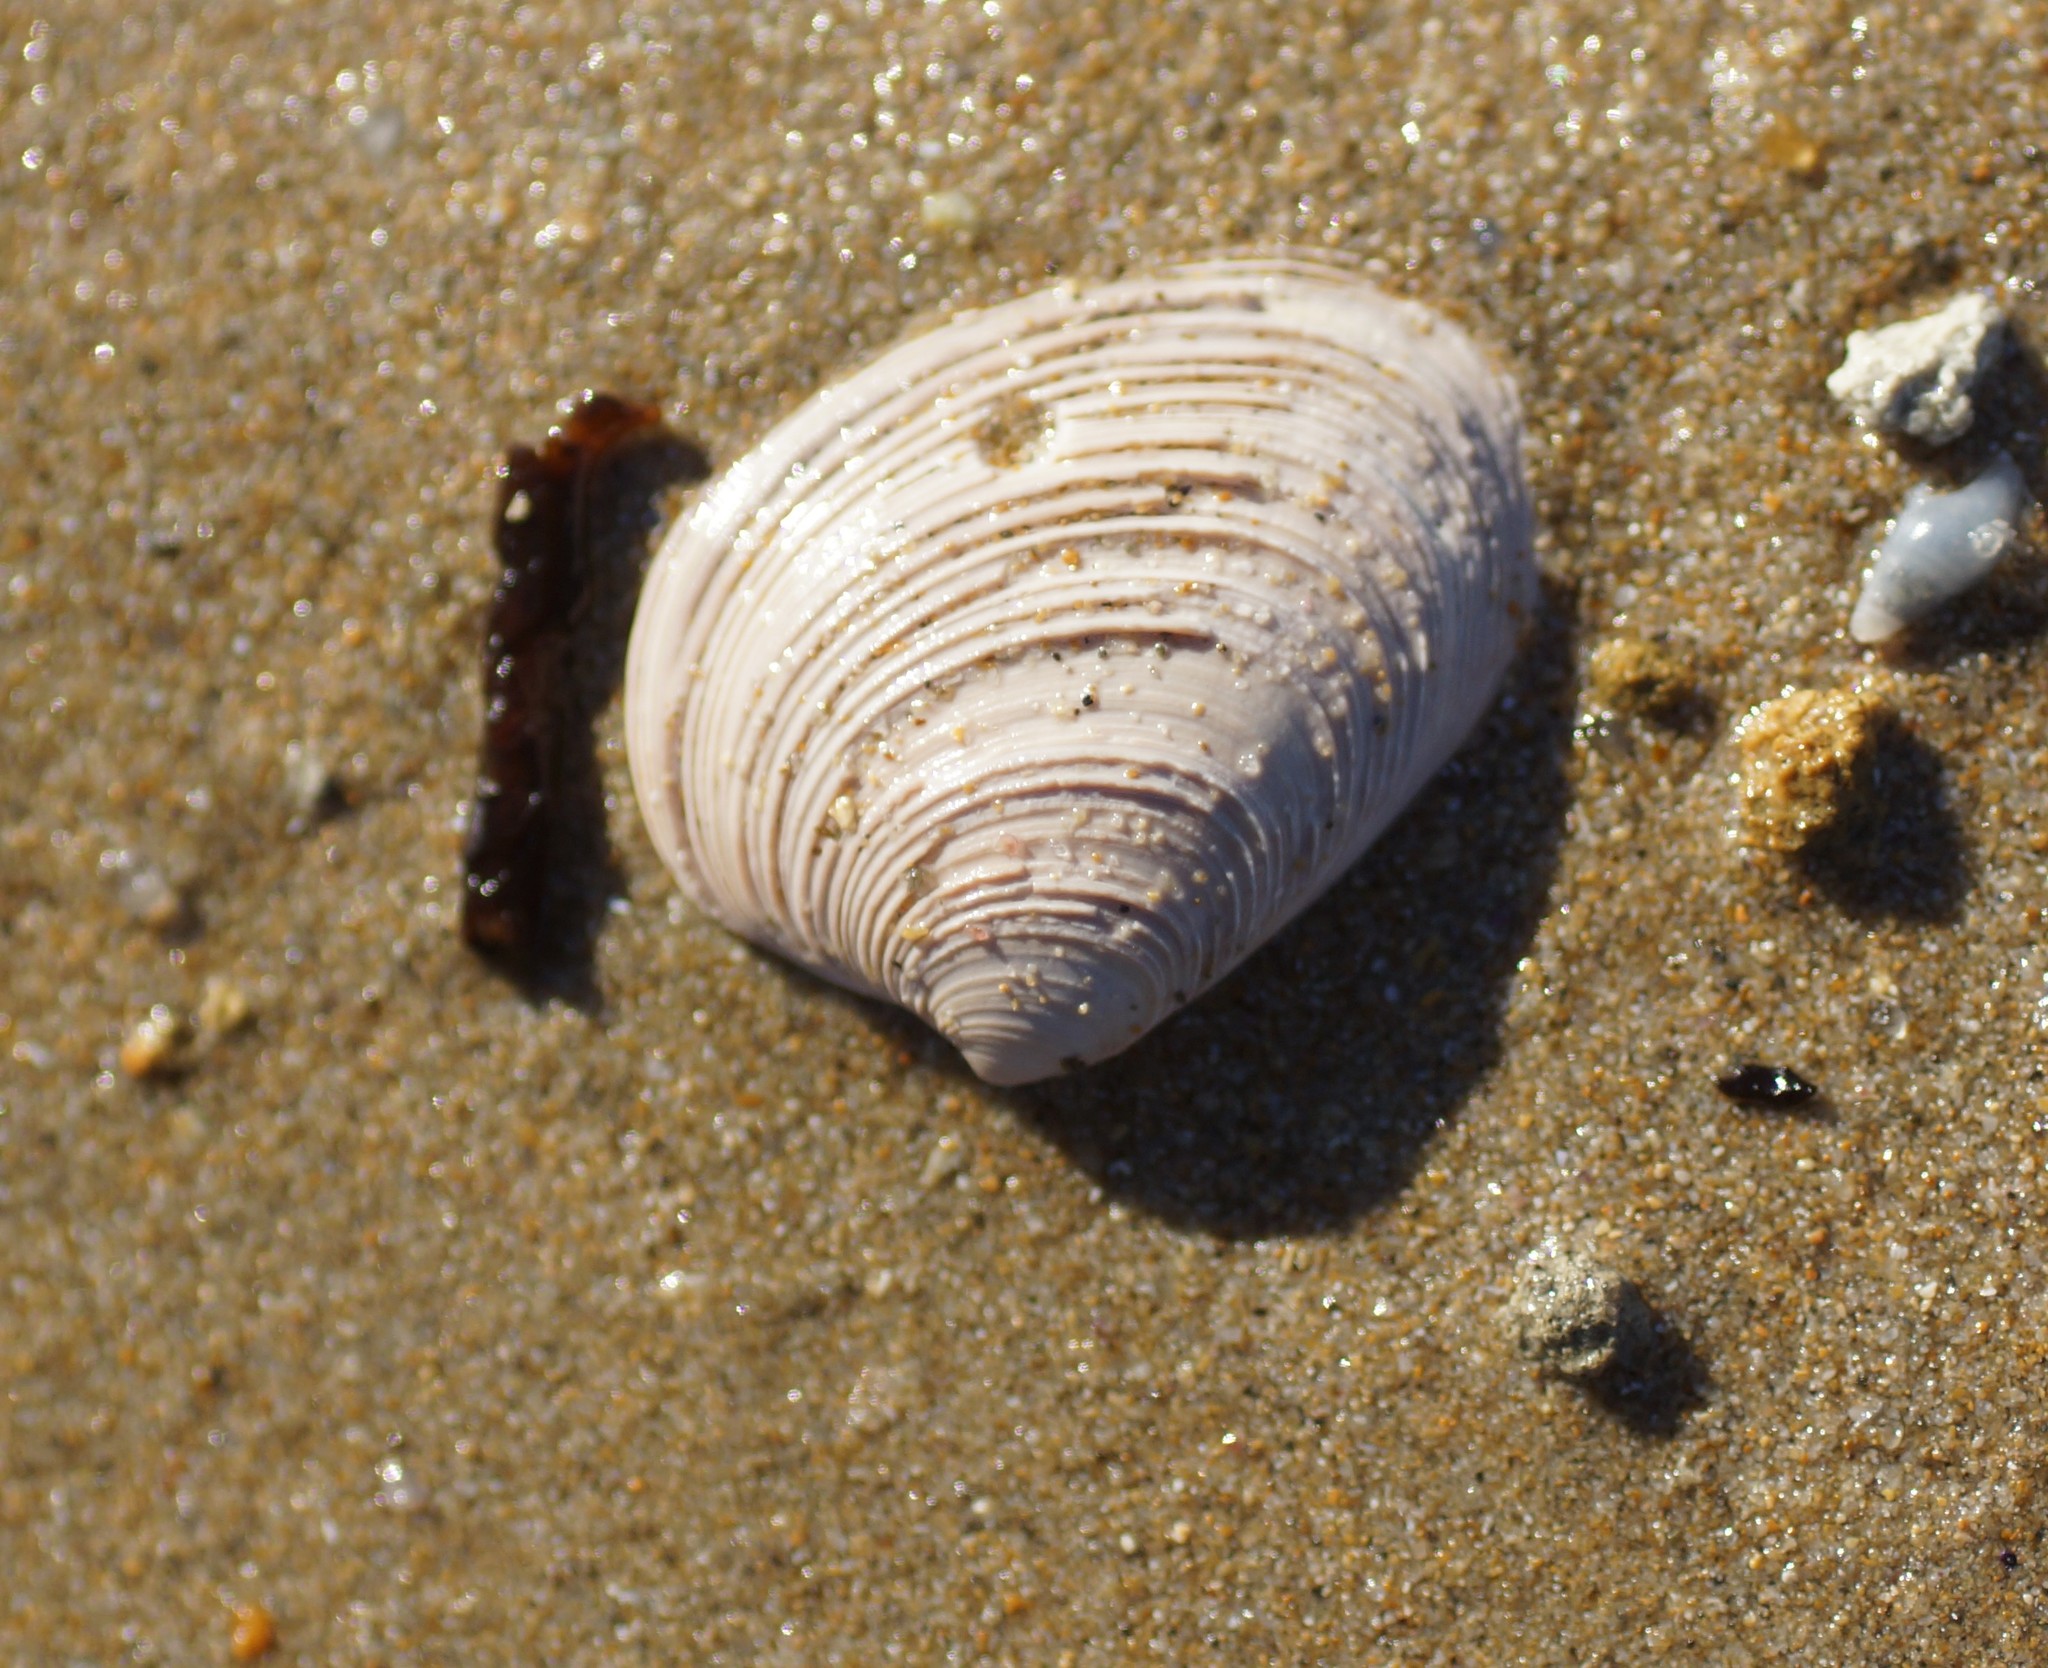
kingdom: Animalia
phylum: Mollusca
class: Bivalvia
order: Venerida
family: Veneridae
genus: Katelysia
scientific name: Katelysia scalarina
